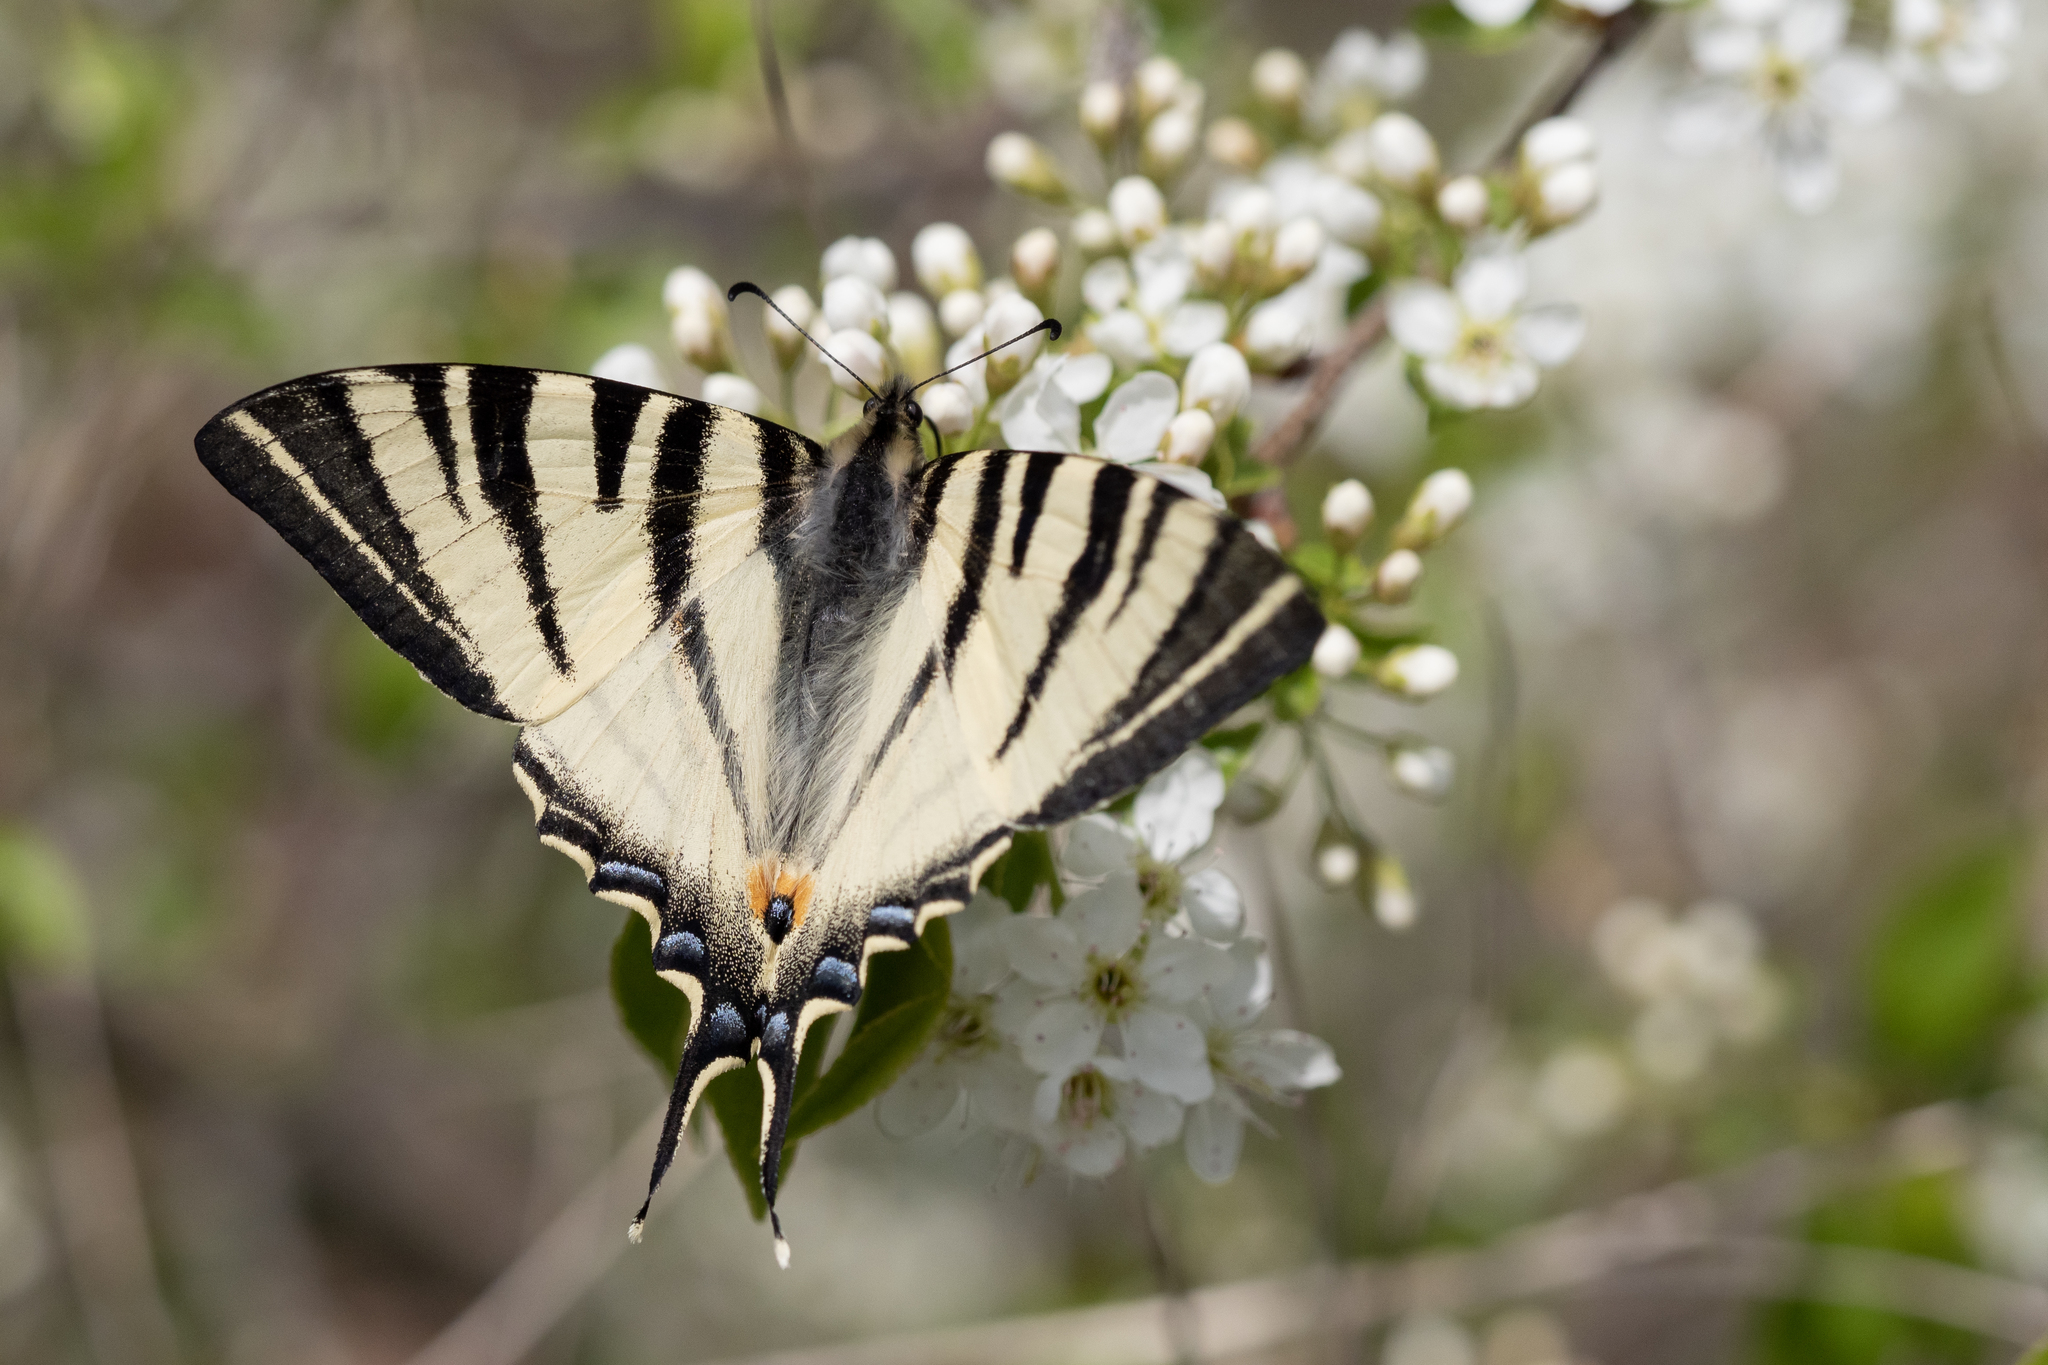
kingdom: Animalia
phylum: Arthropoda
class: Insecta
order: Lepidoptera
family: Papilionidae
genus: Iphiclides
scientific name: Iphiclides podalirius
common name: Scarce swallowtail
